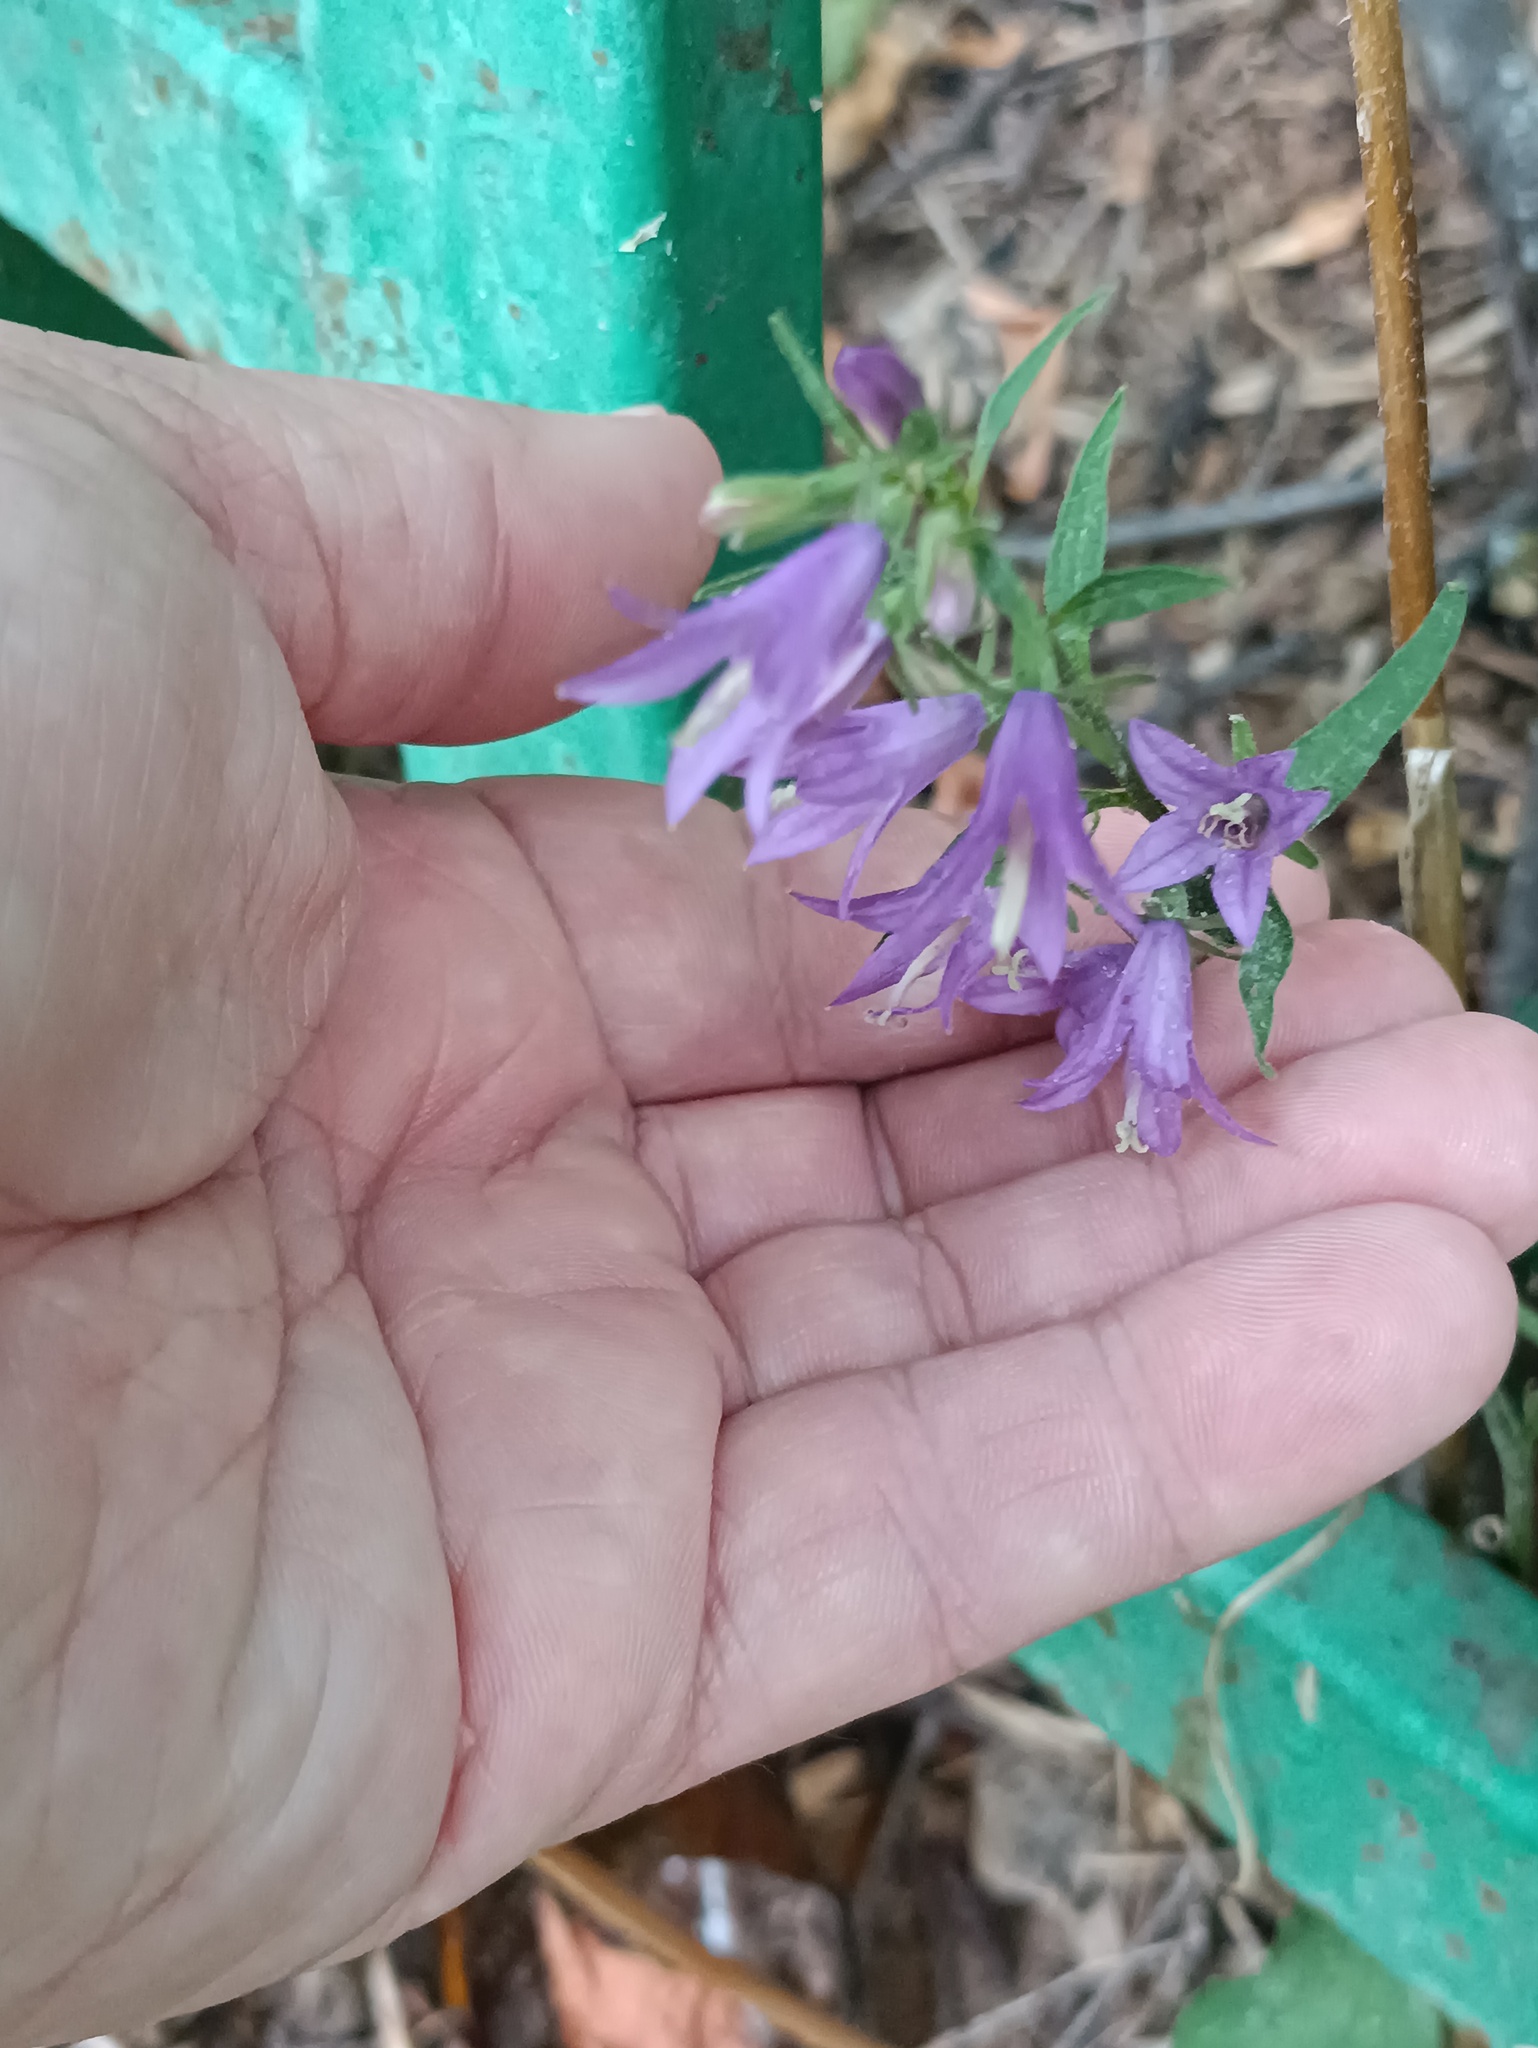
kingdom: Plantae
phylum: Tracheophyta
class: Magnoliopsida
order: Asterales
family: Campanulaceae
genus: Campanula
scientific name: Campanula rapunculoides
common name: Creeping bellflower
